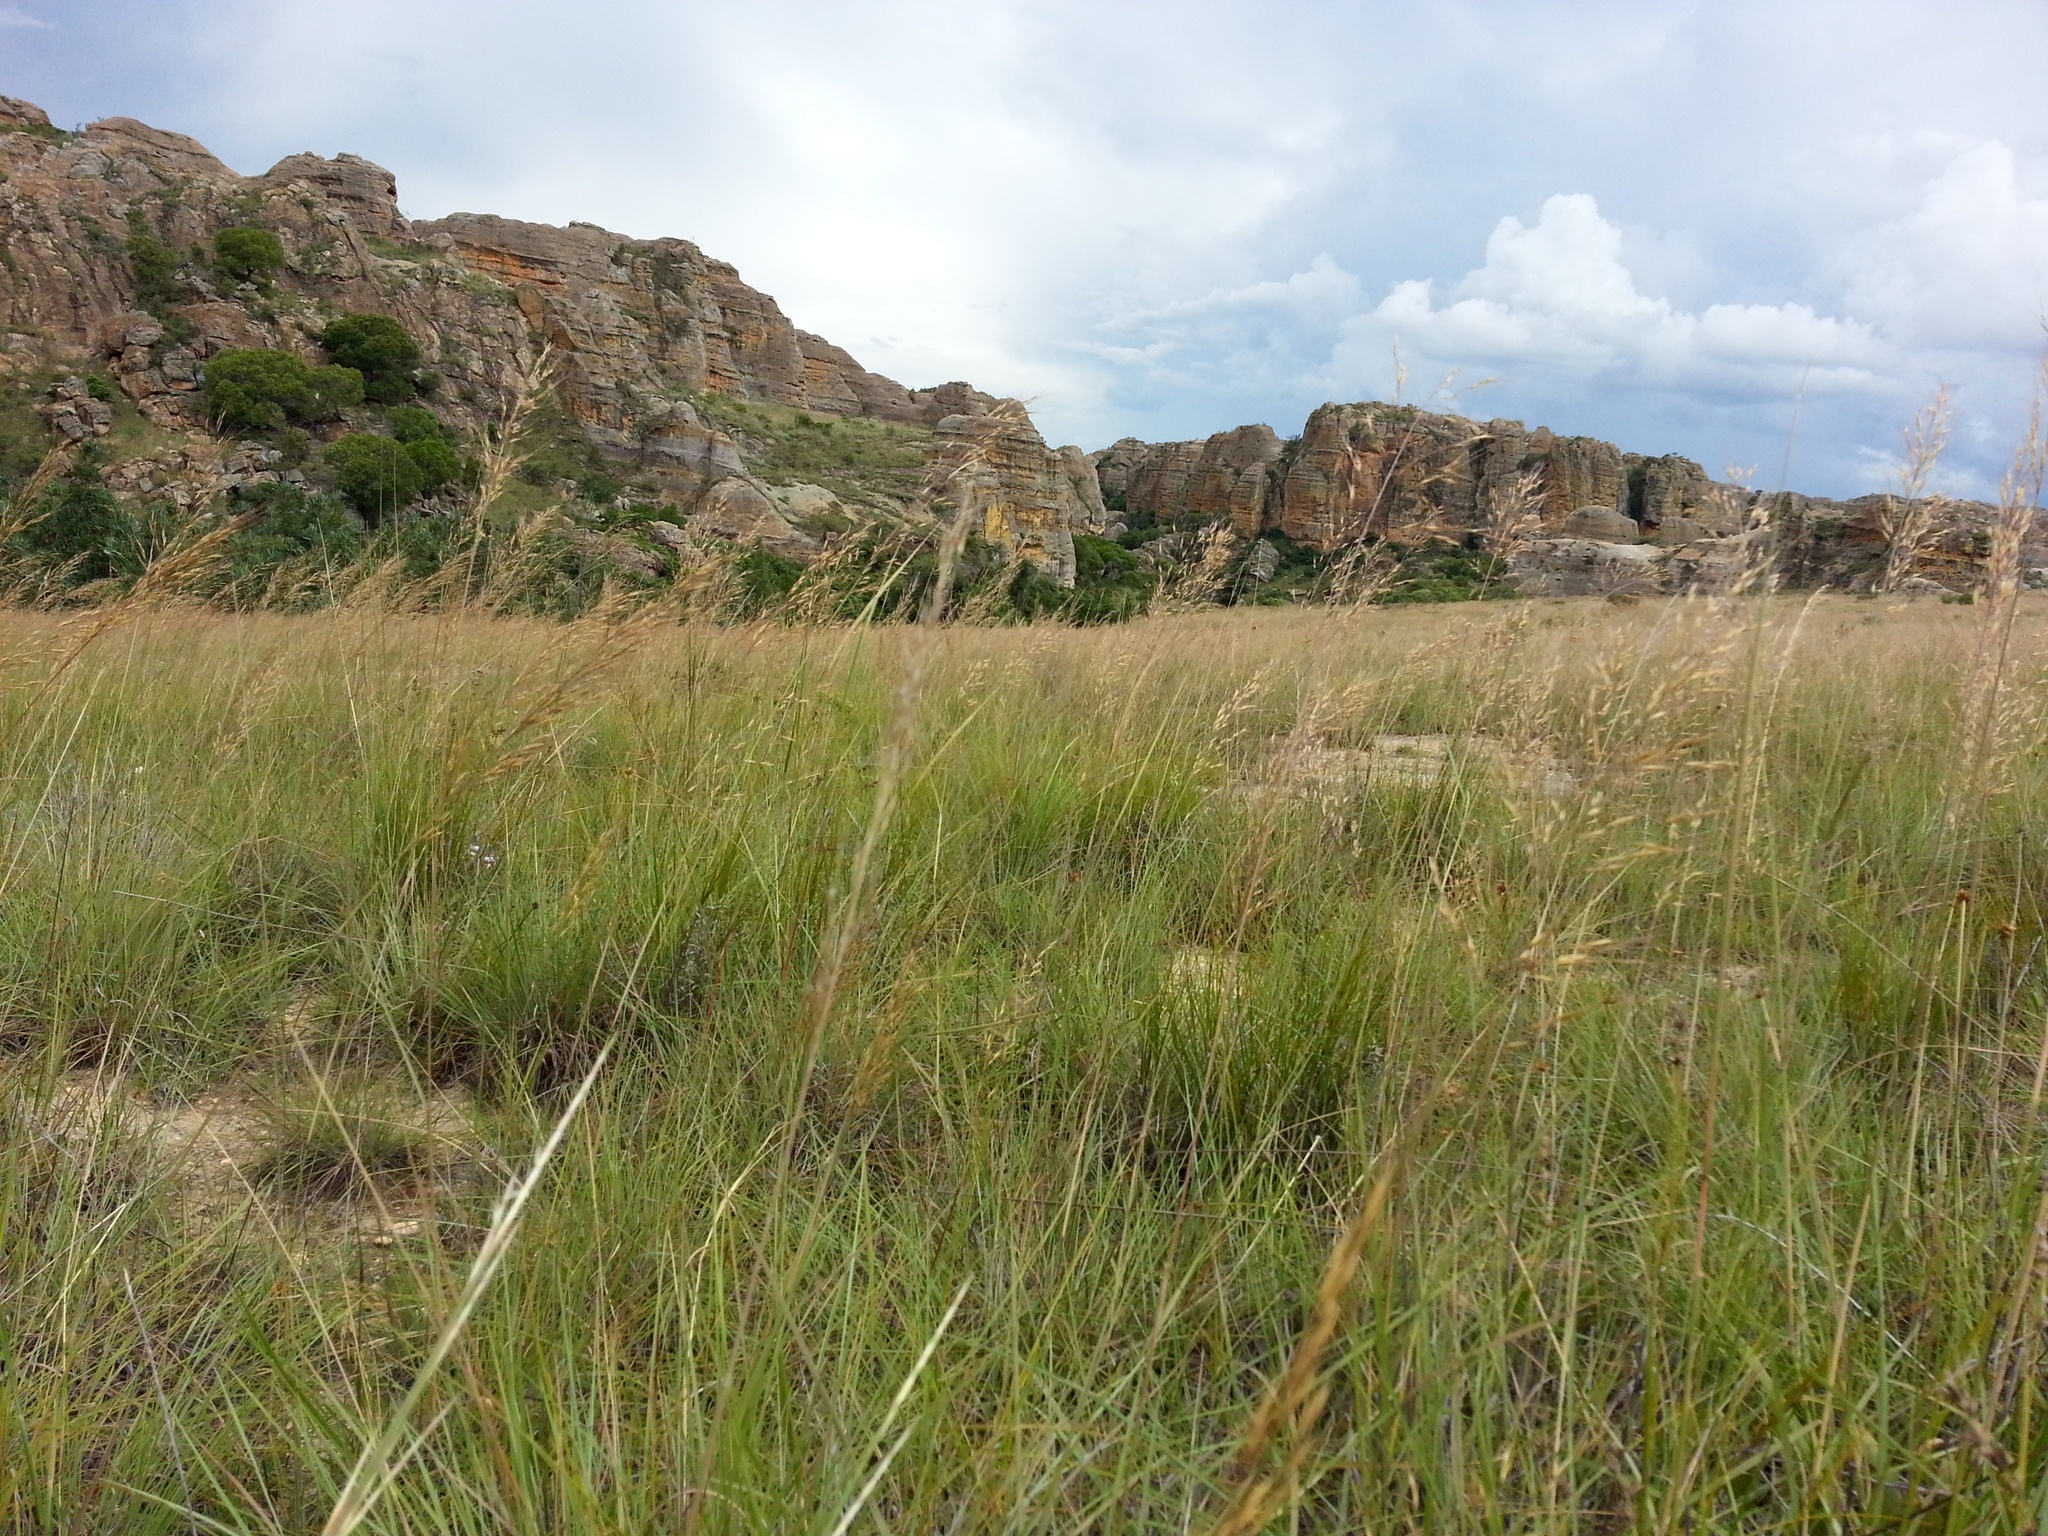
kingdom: Plantae
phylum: Tracheophyta
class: Liliopsida
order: Poales
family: Poaceae
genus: Loudetia
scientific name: Loudetia simplex
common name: Common russet grass
